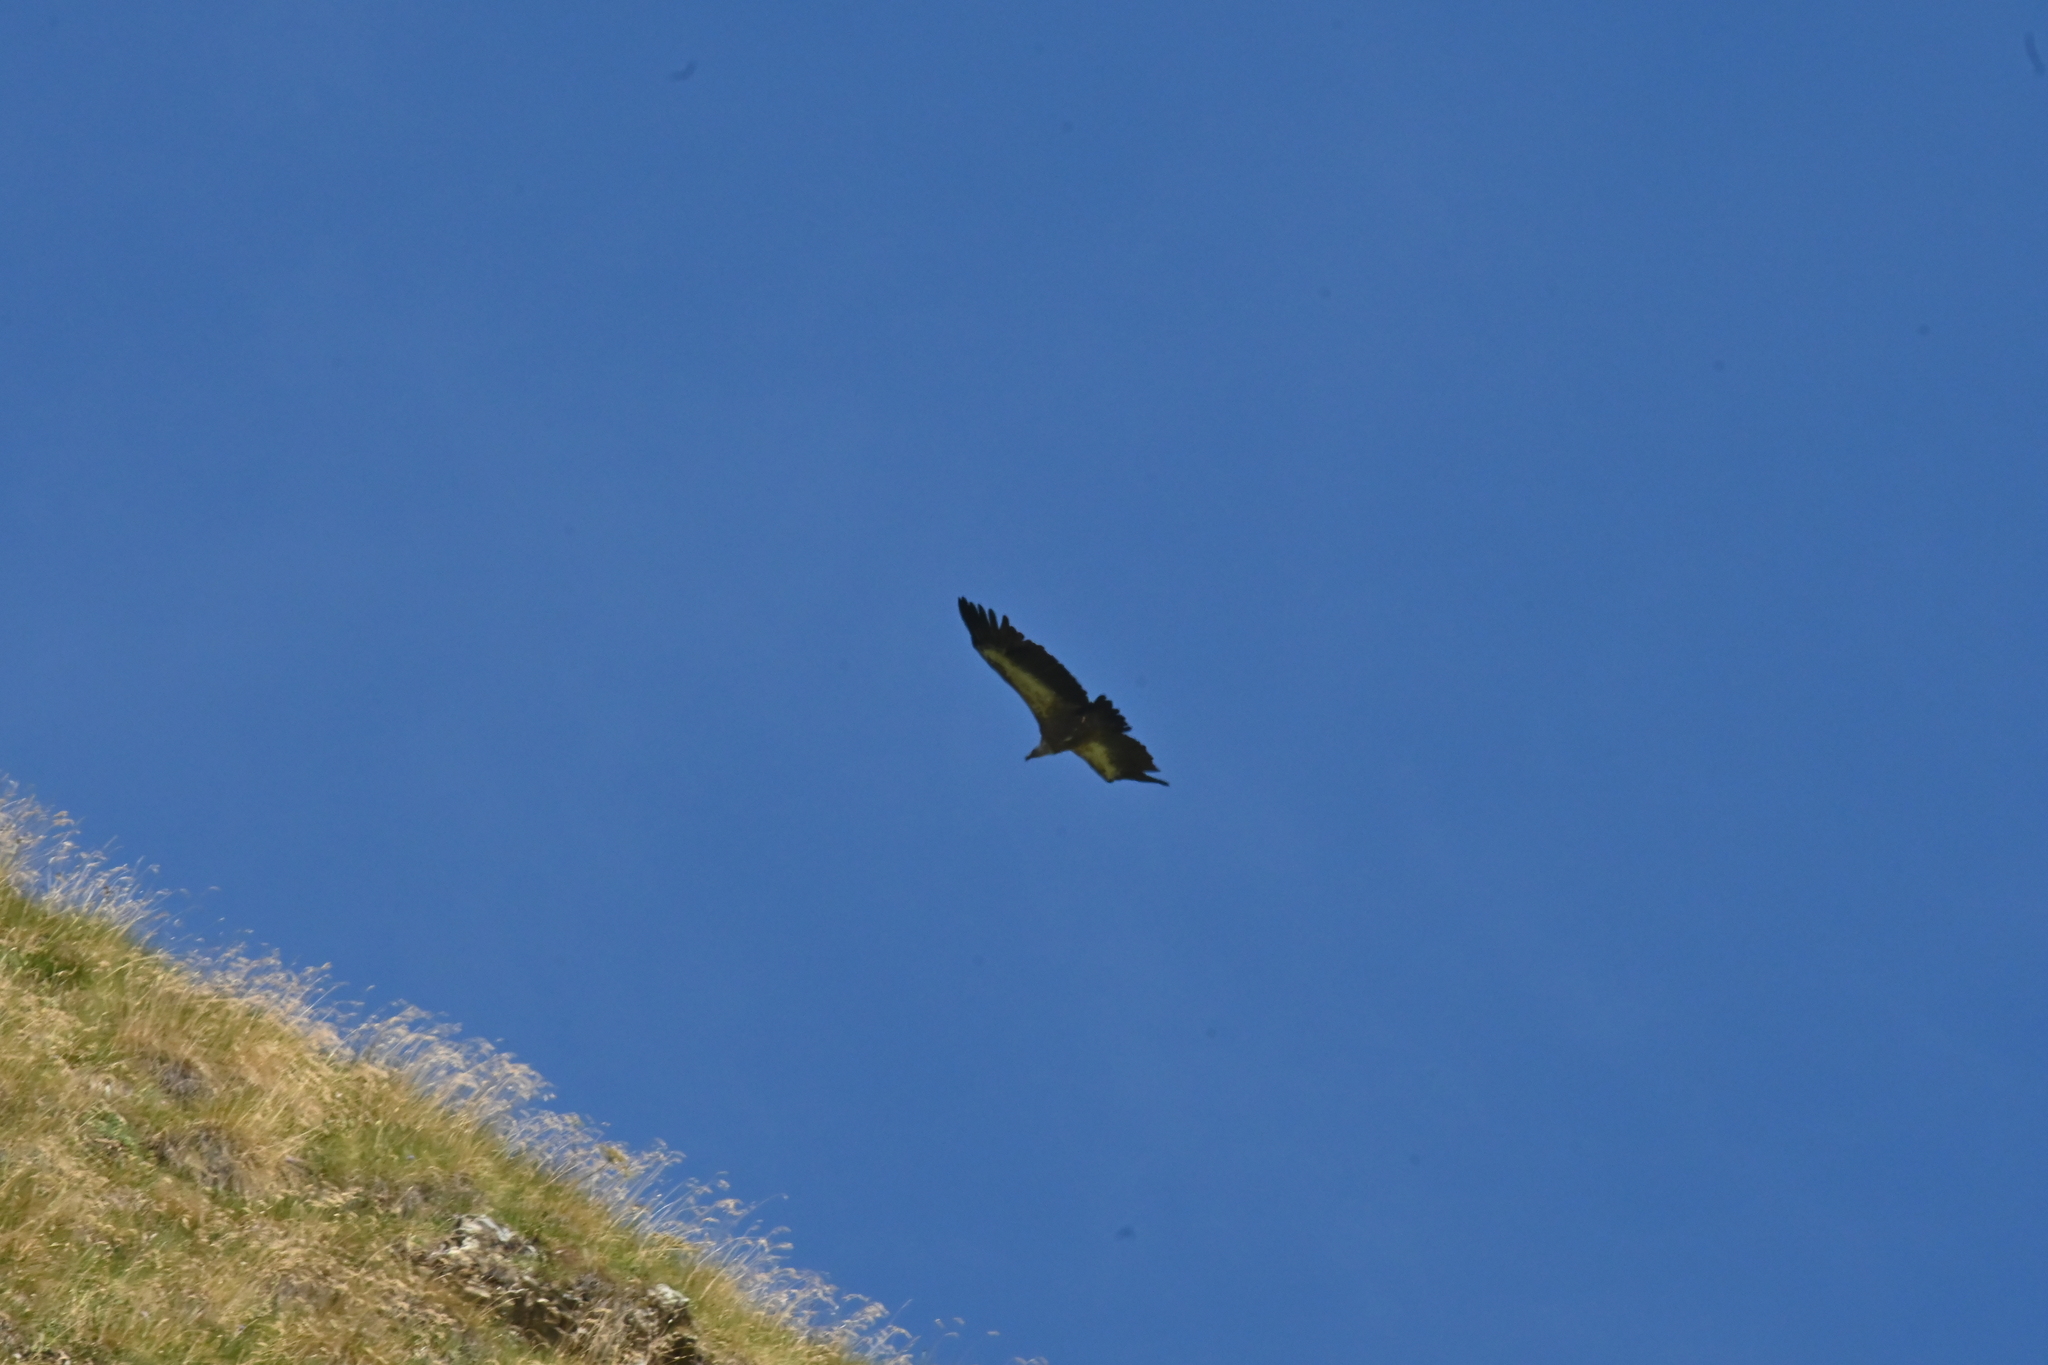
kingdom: Animalia
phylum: Chordata
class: Aves
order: Accipitriformes
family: Accipitridae
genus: Gyps
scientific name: Gyps fulvus
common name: Griffon vulture
